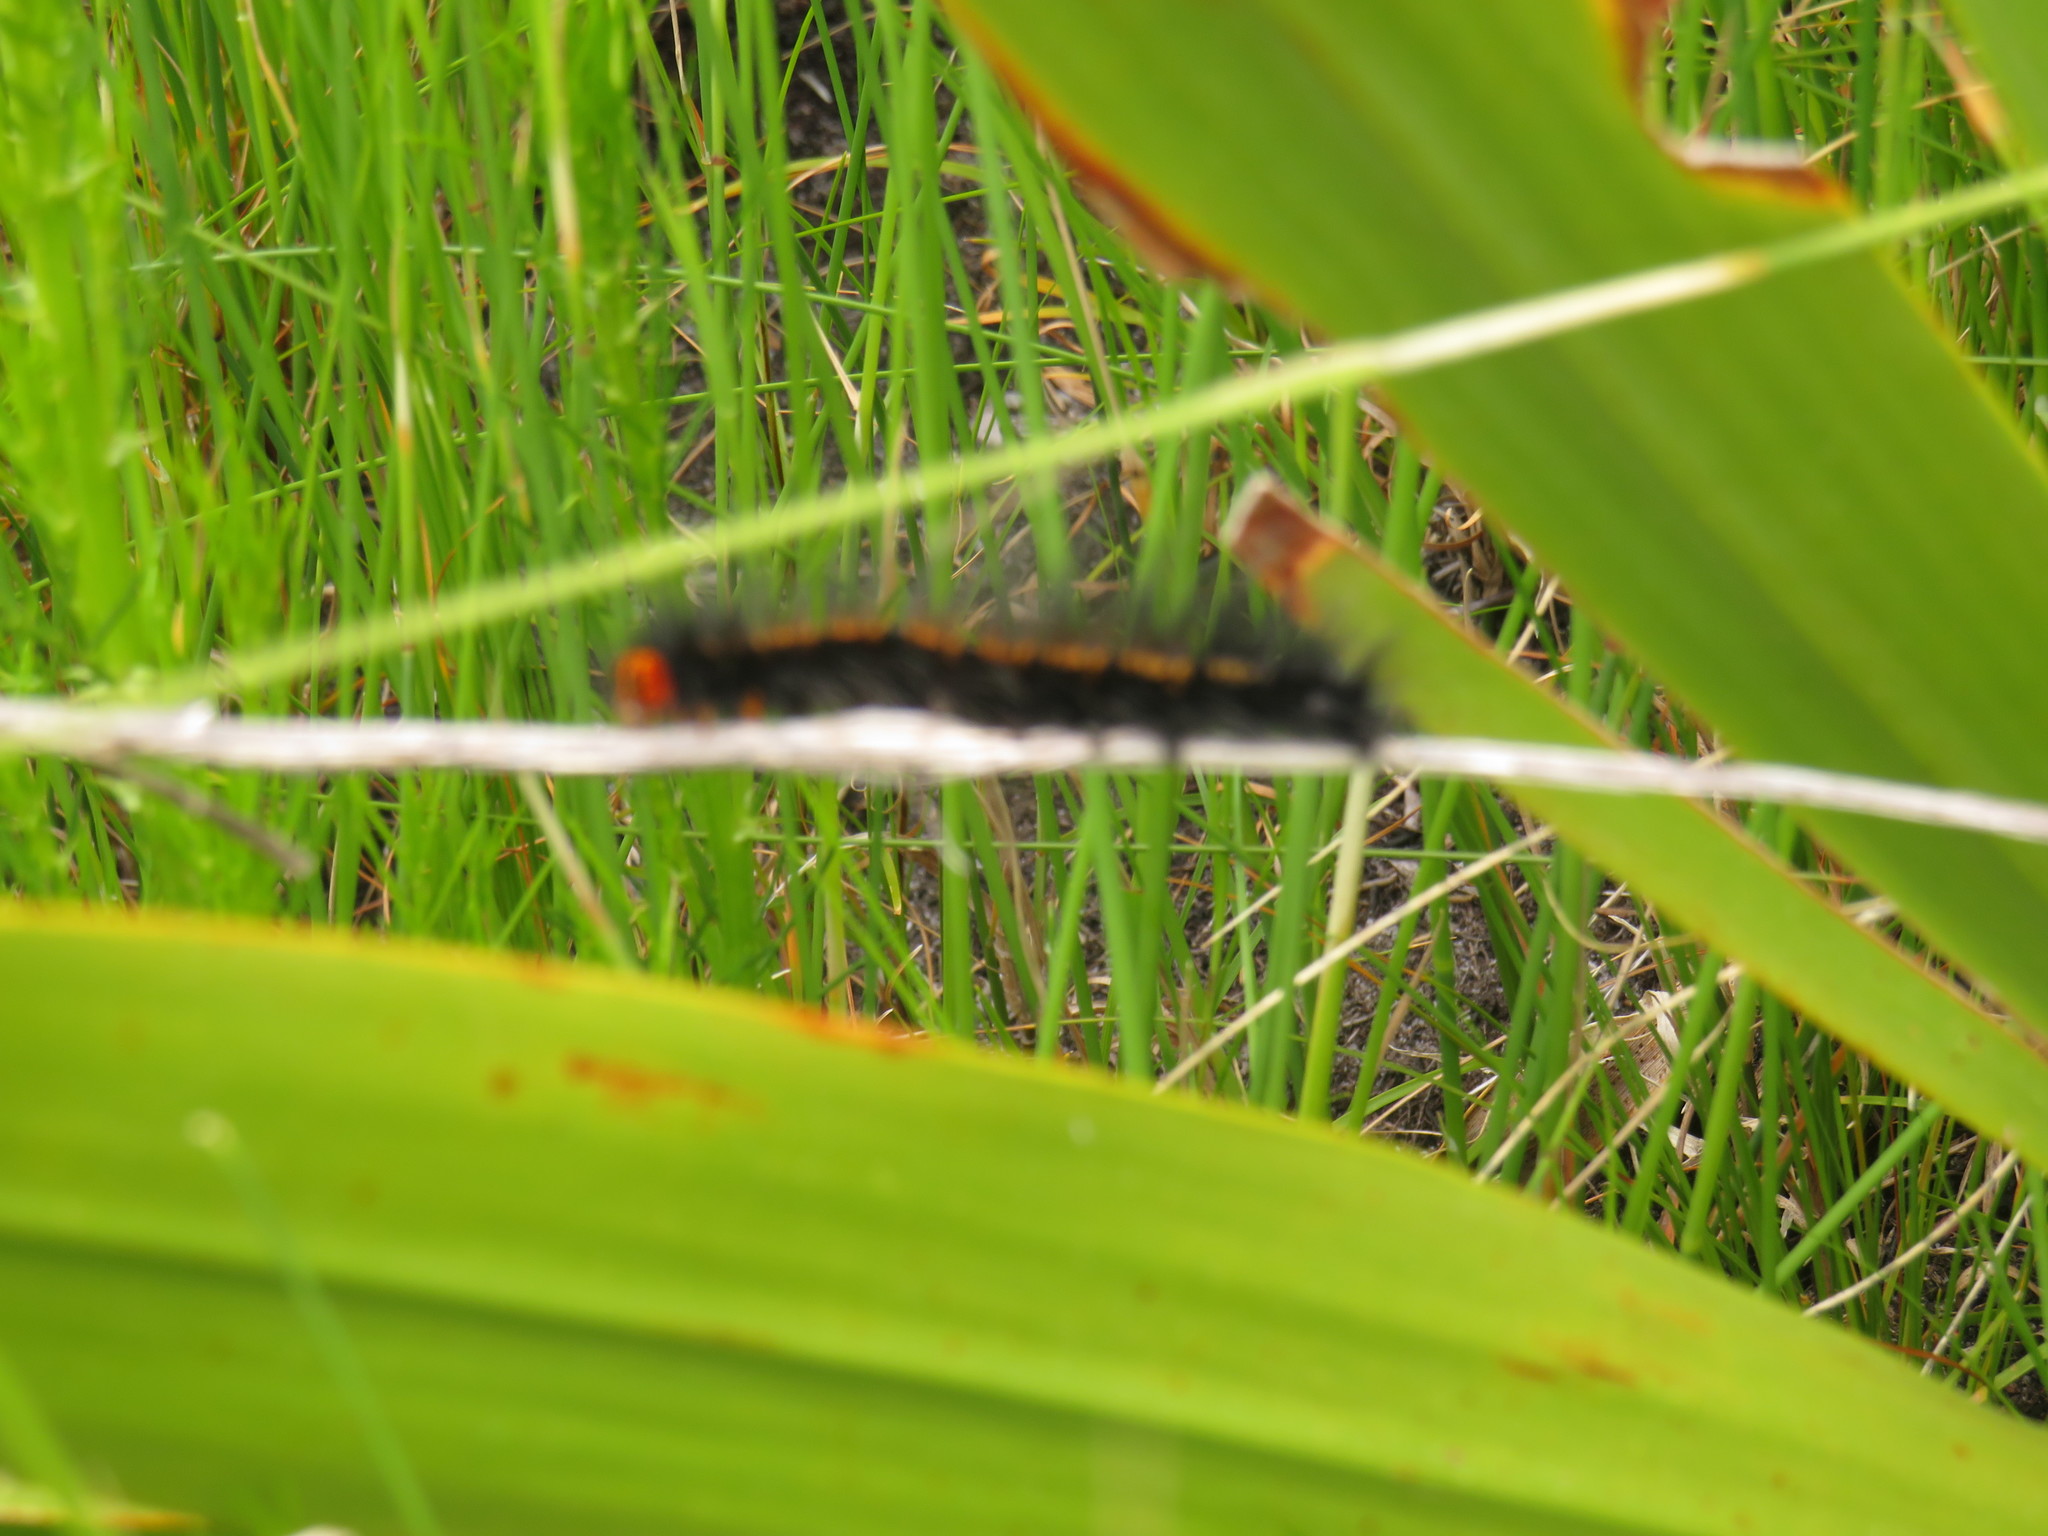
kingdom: Animalia
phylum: Arthropoda
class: Insecta
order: Lepidoptera
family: Lasiocampidae
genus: Mesocelis
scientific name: Mesocelis monticola
